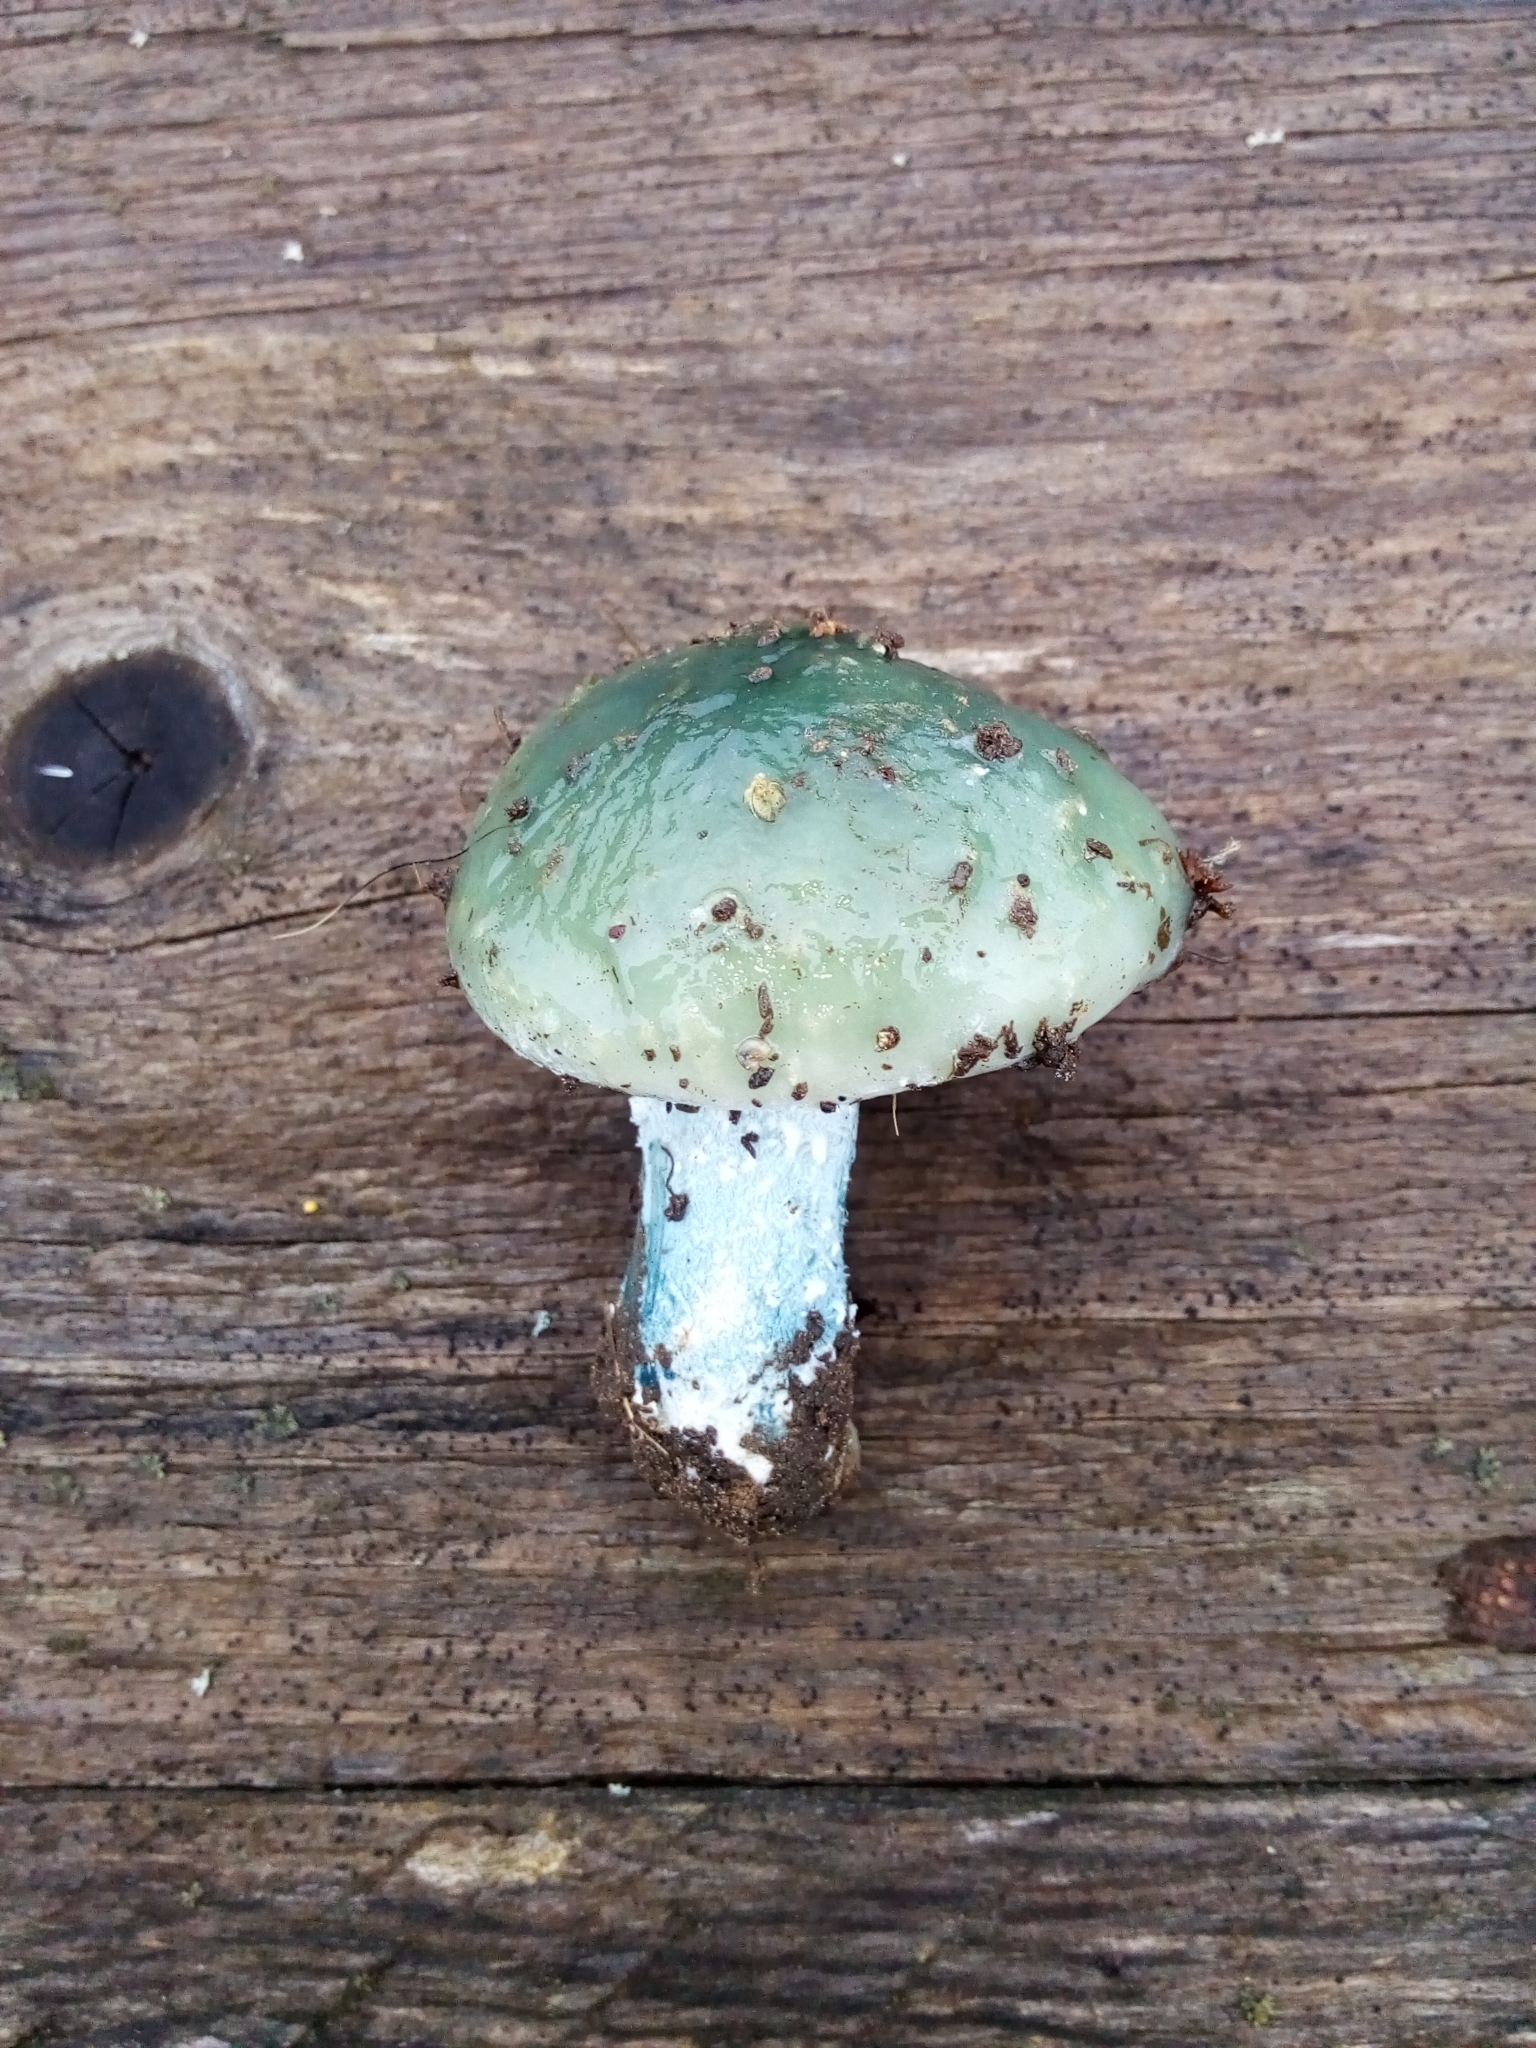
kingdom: Fungi
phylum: Basidiomycota
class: Agaricomycetes
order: Agaricales
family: Strophariaceae
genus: Stropharia
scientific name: Stropharia aeruginosa
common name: Verdigris roundhead
